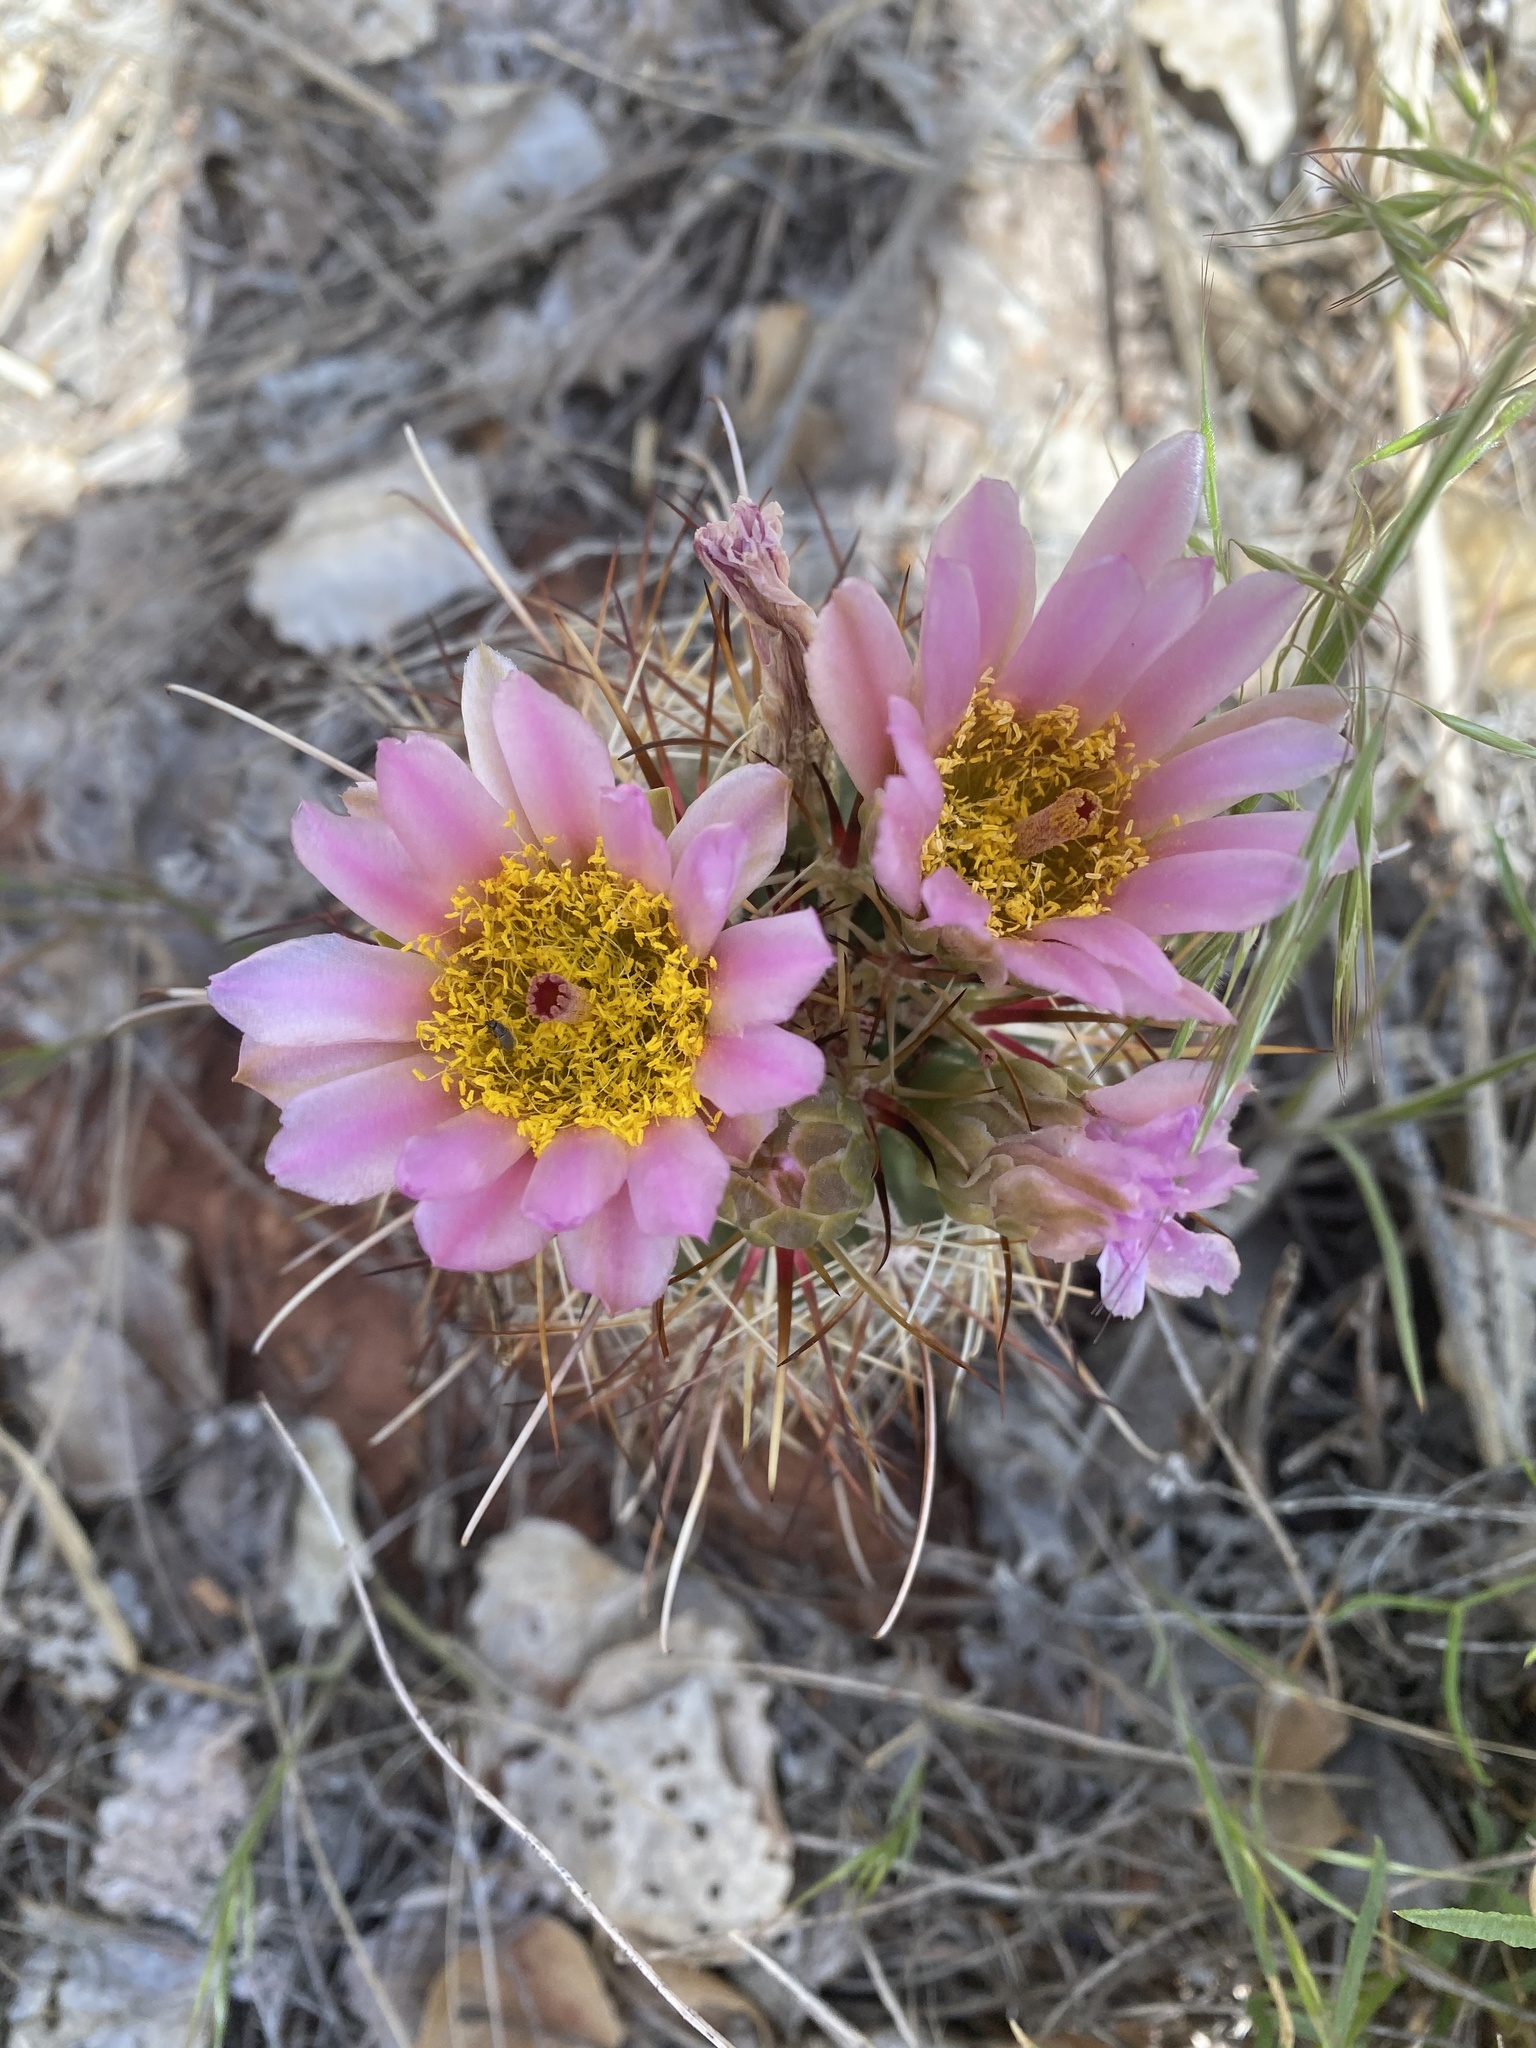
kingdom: Plantae
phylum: Tracheophyta
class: Magnoliopsida
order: Caryophyllales
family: Cactaceae
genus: Sclerocactus
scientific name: Sclerocactus parviflorus
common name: Small-flower fishhook cactus
